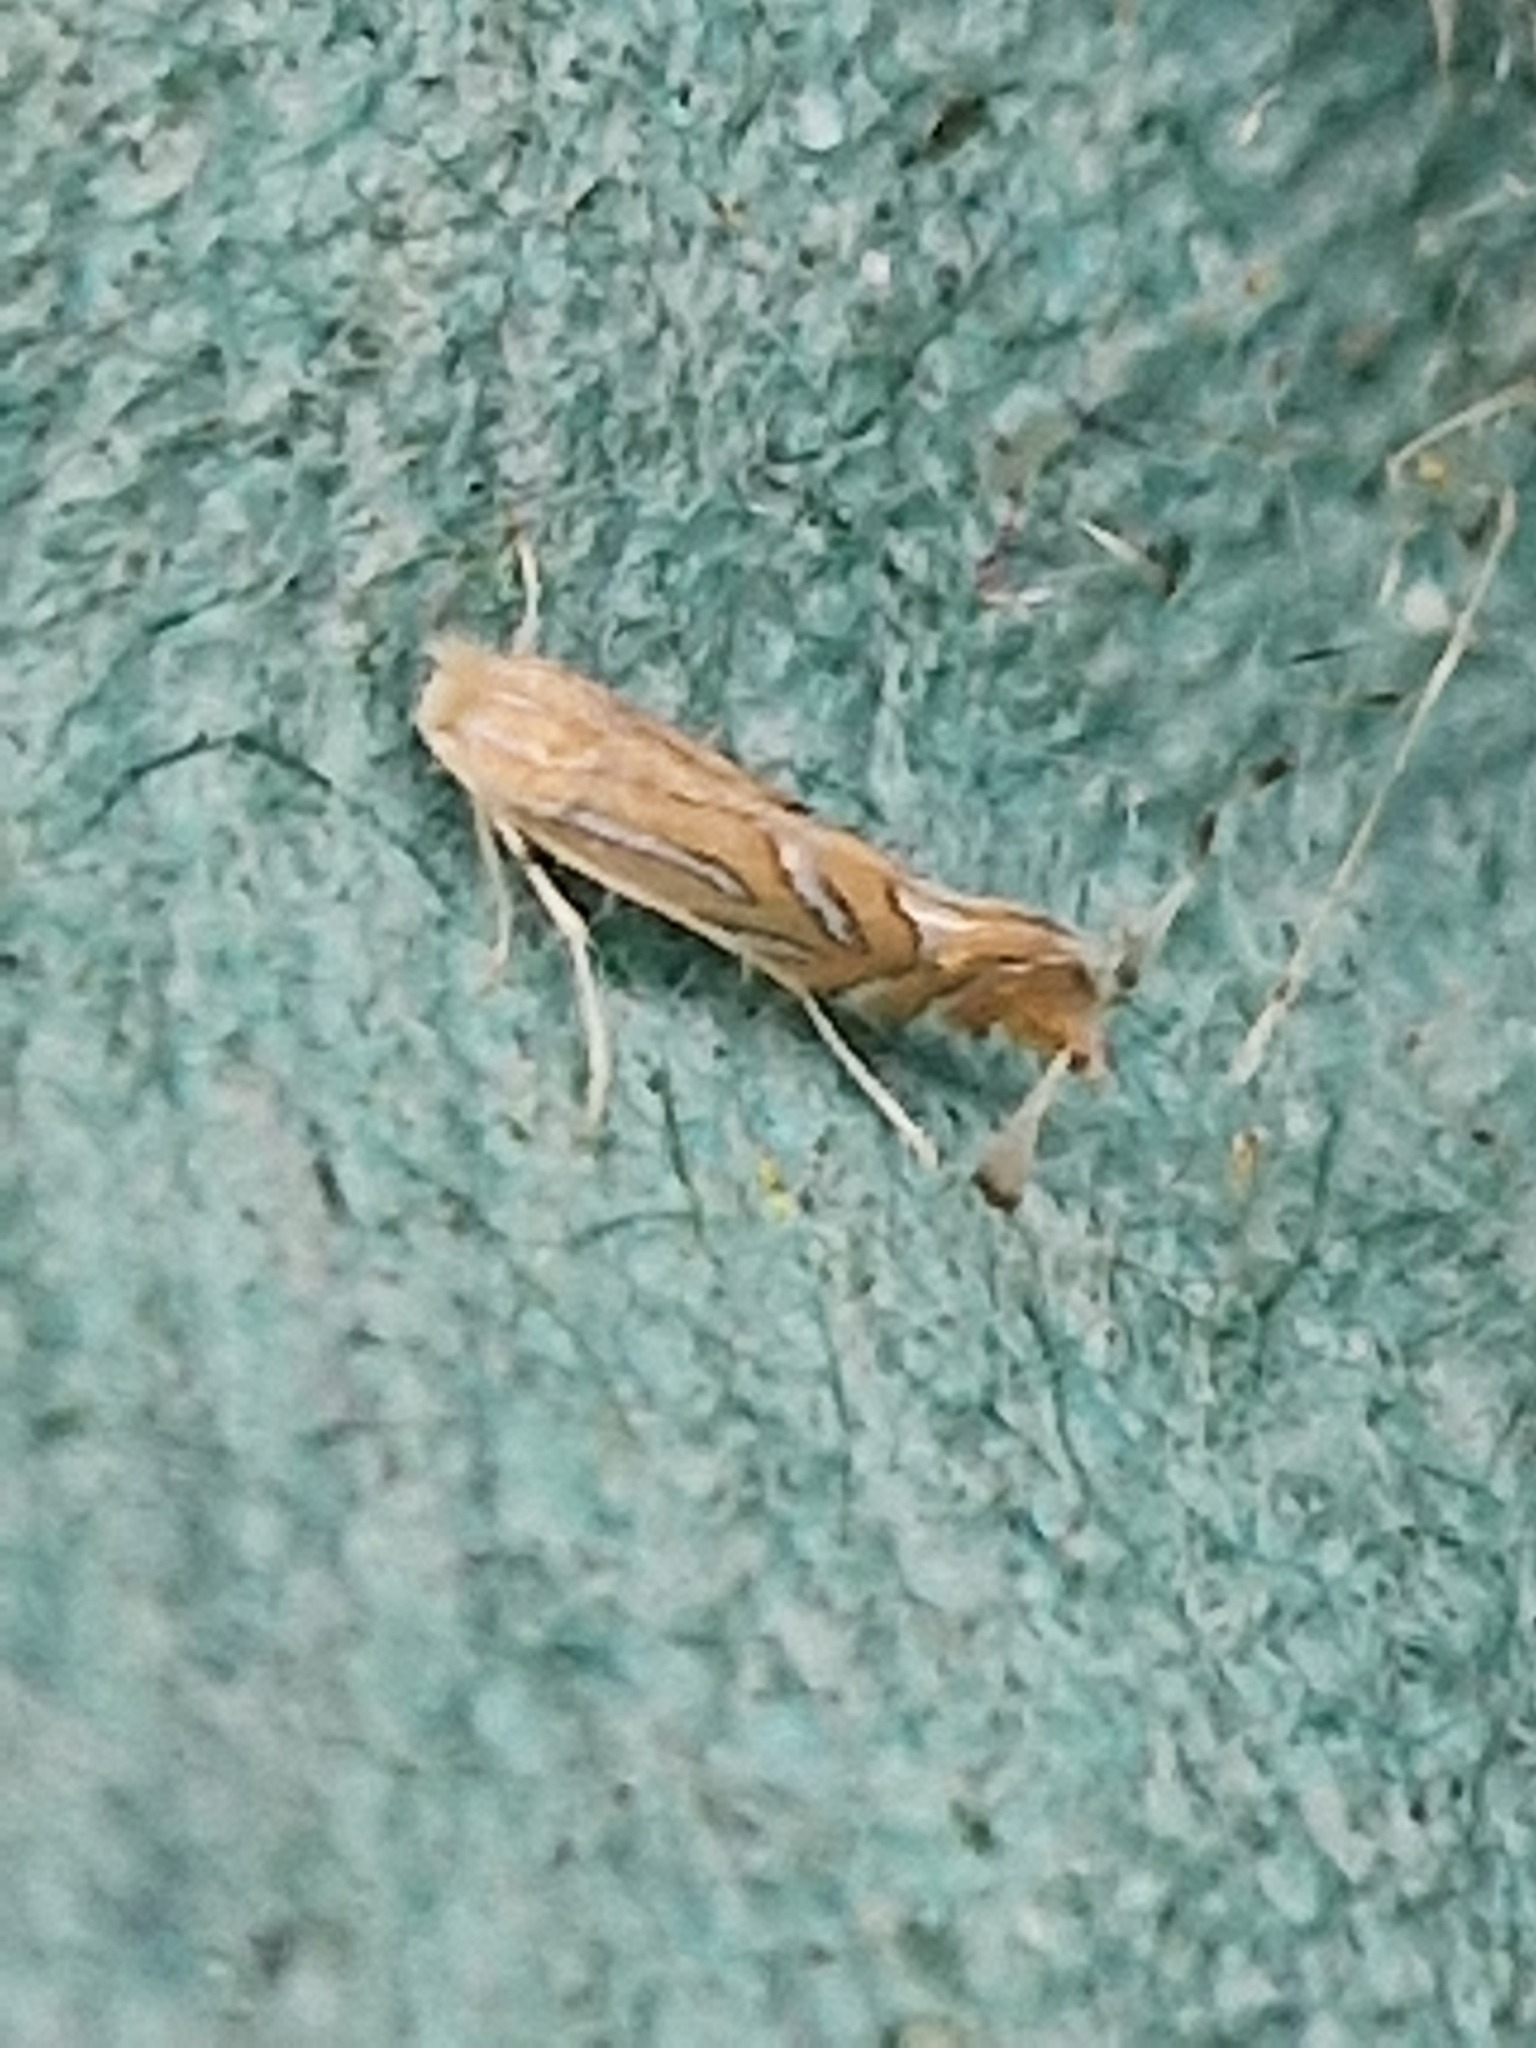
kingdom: Animalia
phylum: Arthropoda
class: Insecta
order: Lepidoptera
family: Gracillariidae
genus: Phyllonorycter
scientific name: Phyllonorycter platani
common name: London midget
